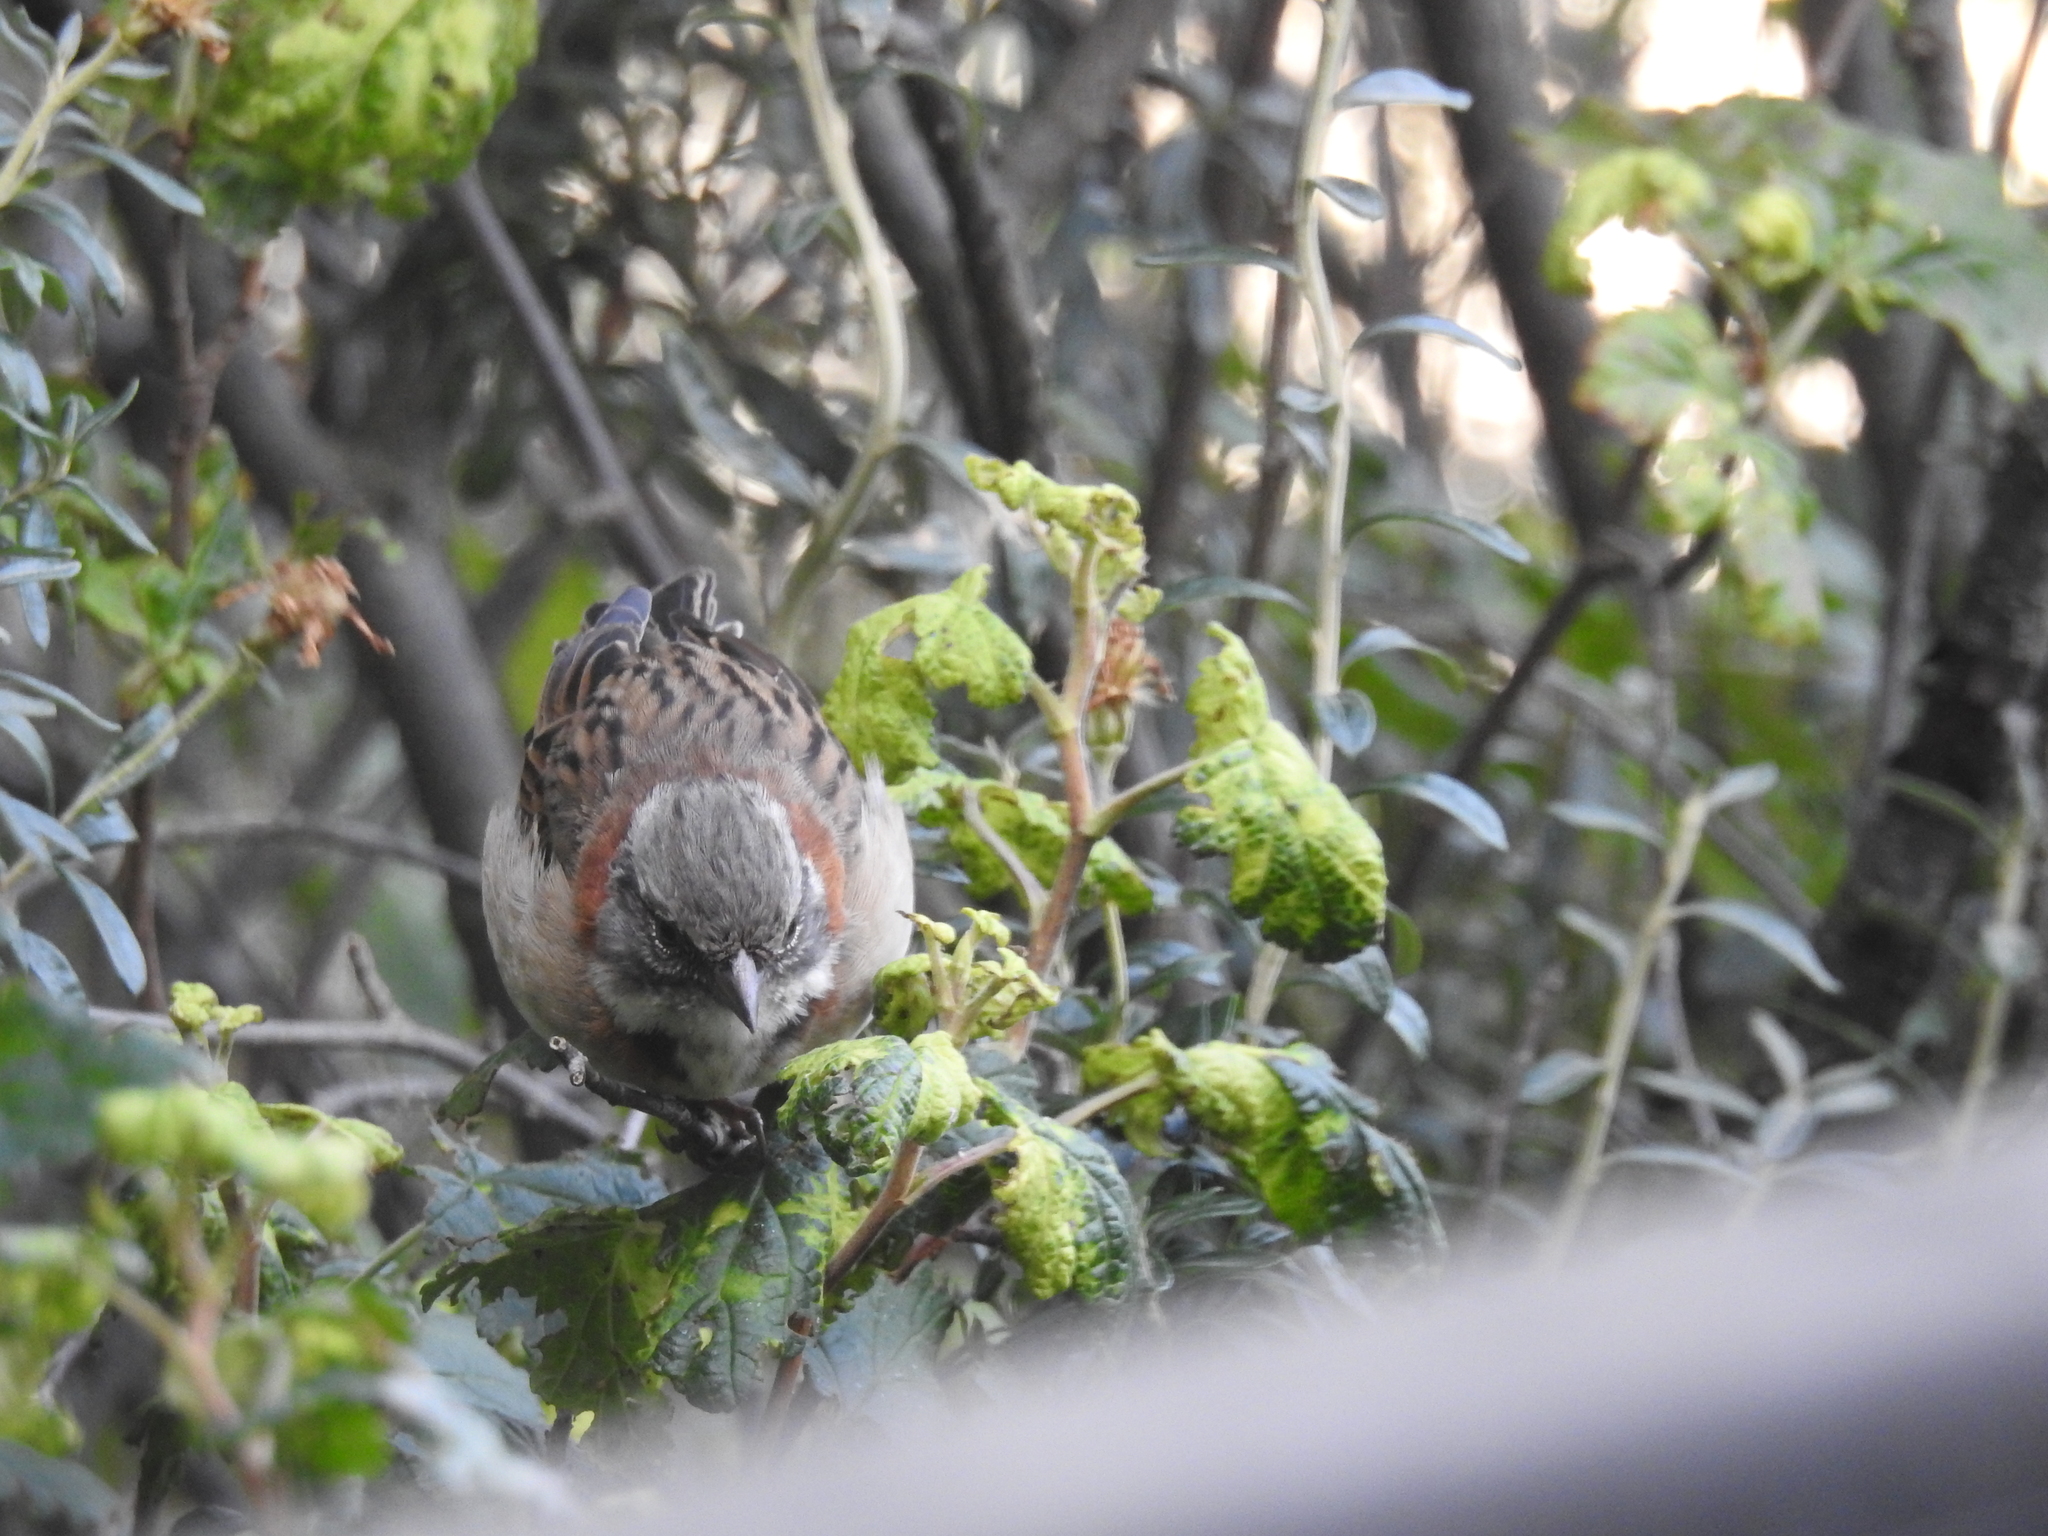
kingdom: Animalia
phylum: Chordata
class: Aves
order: Passeriformes
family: Passerellidae
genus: Zonotrichia
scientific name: Zonotrichia capensis
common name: Rufous-collared sparrow
